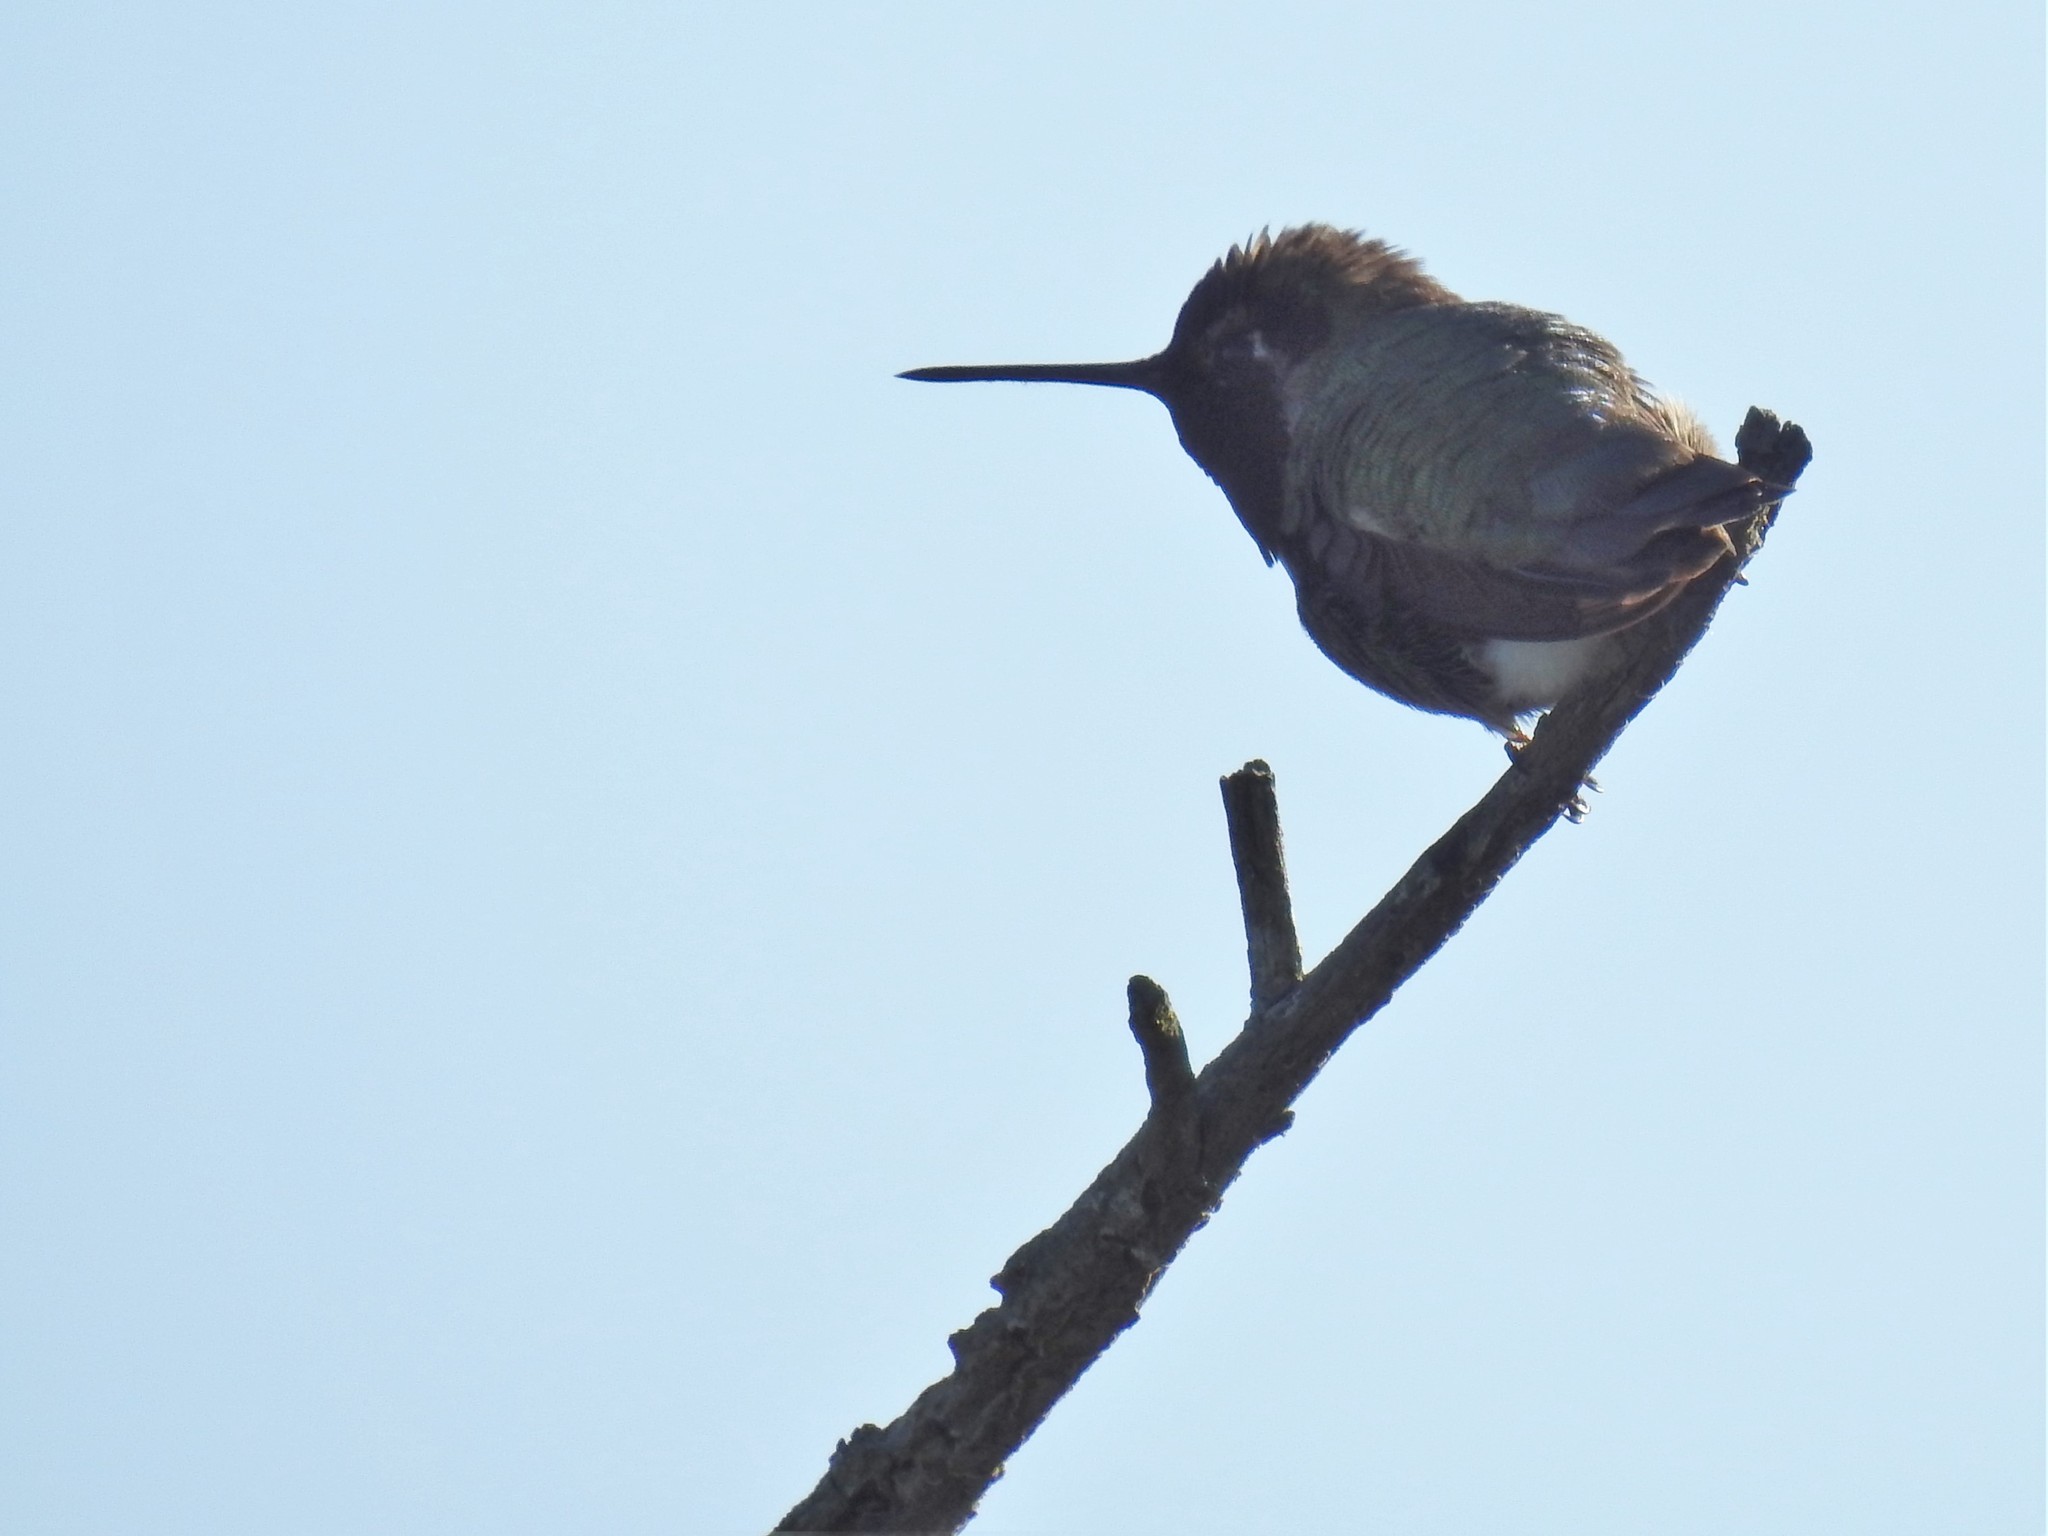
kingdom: Animalia
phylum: Chordata
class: Aves
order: Apodiformes
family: Trochilidae
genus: Calypte
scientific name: Calypte anna
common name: Anna's hummingbird
